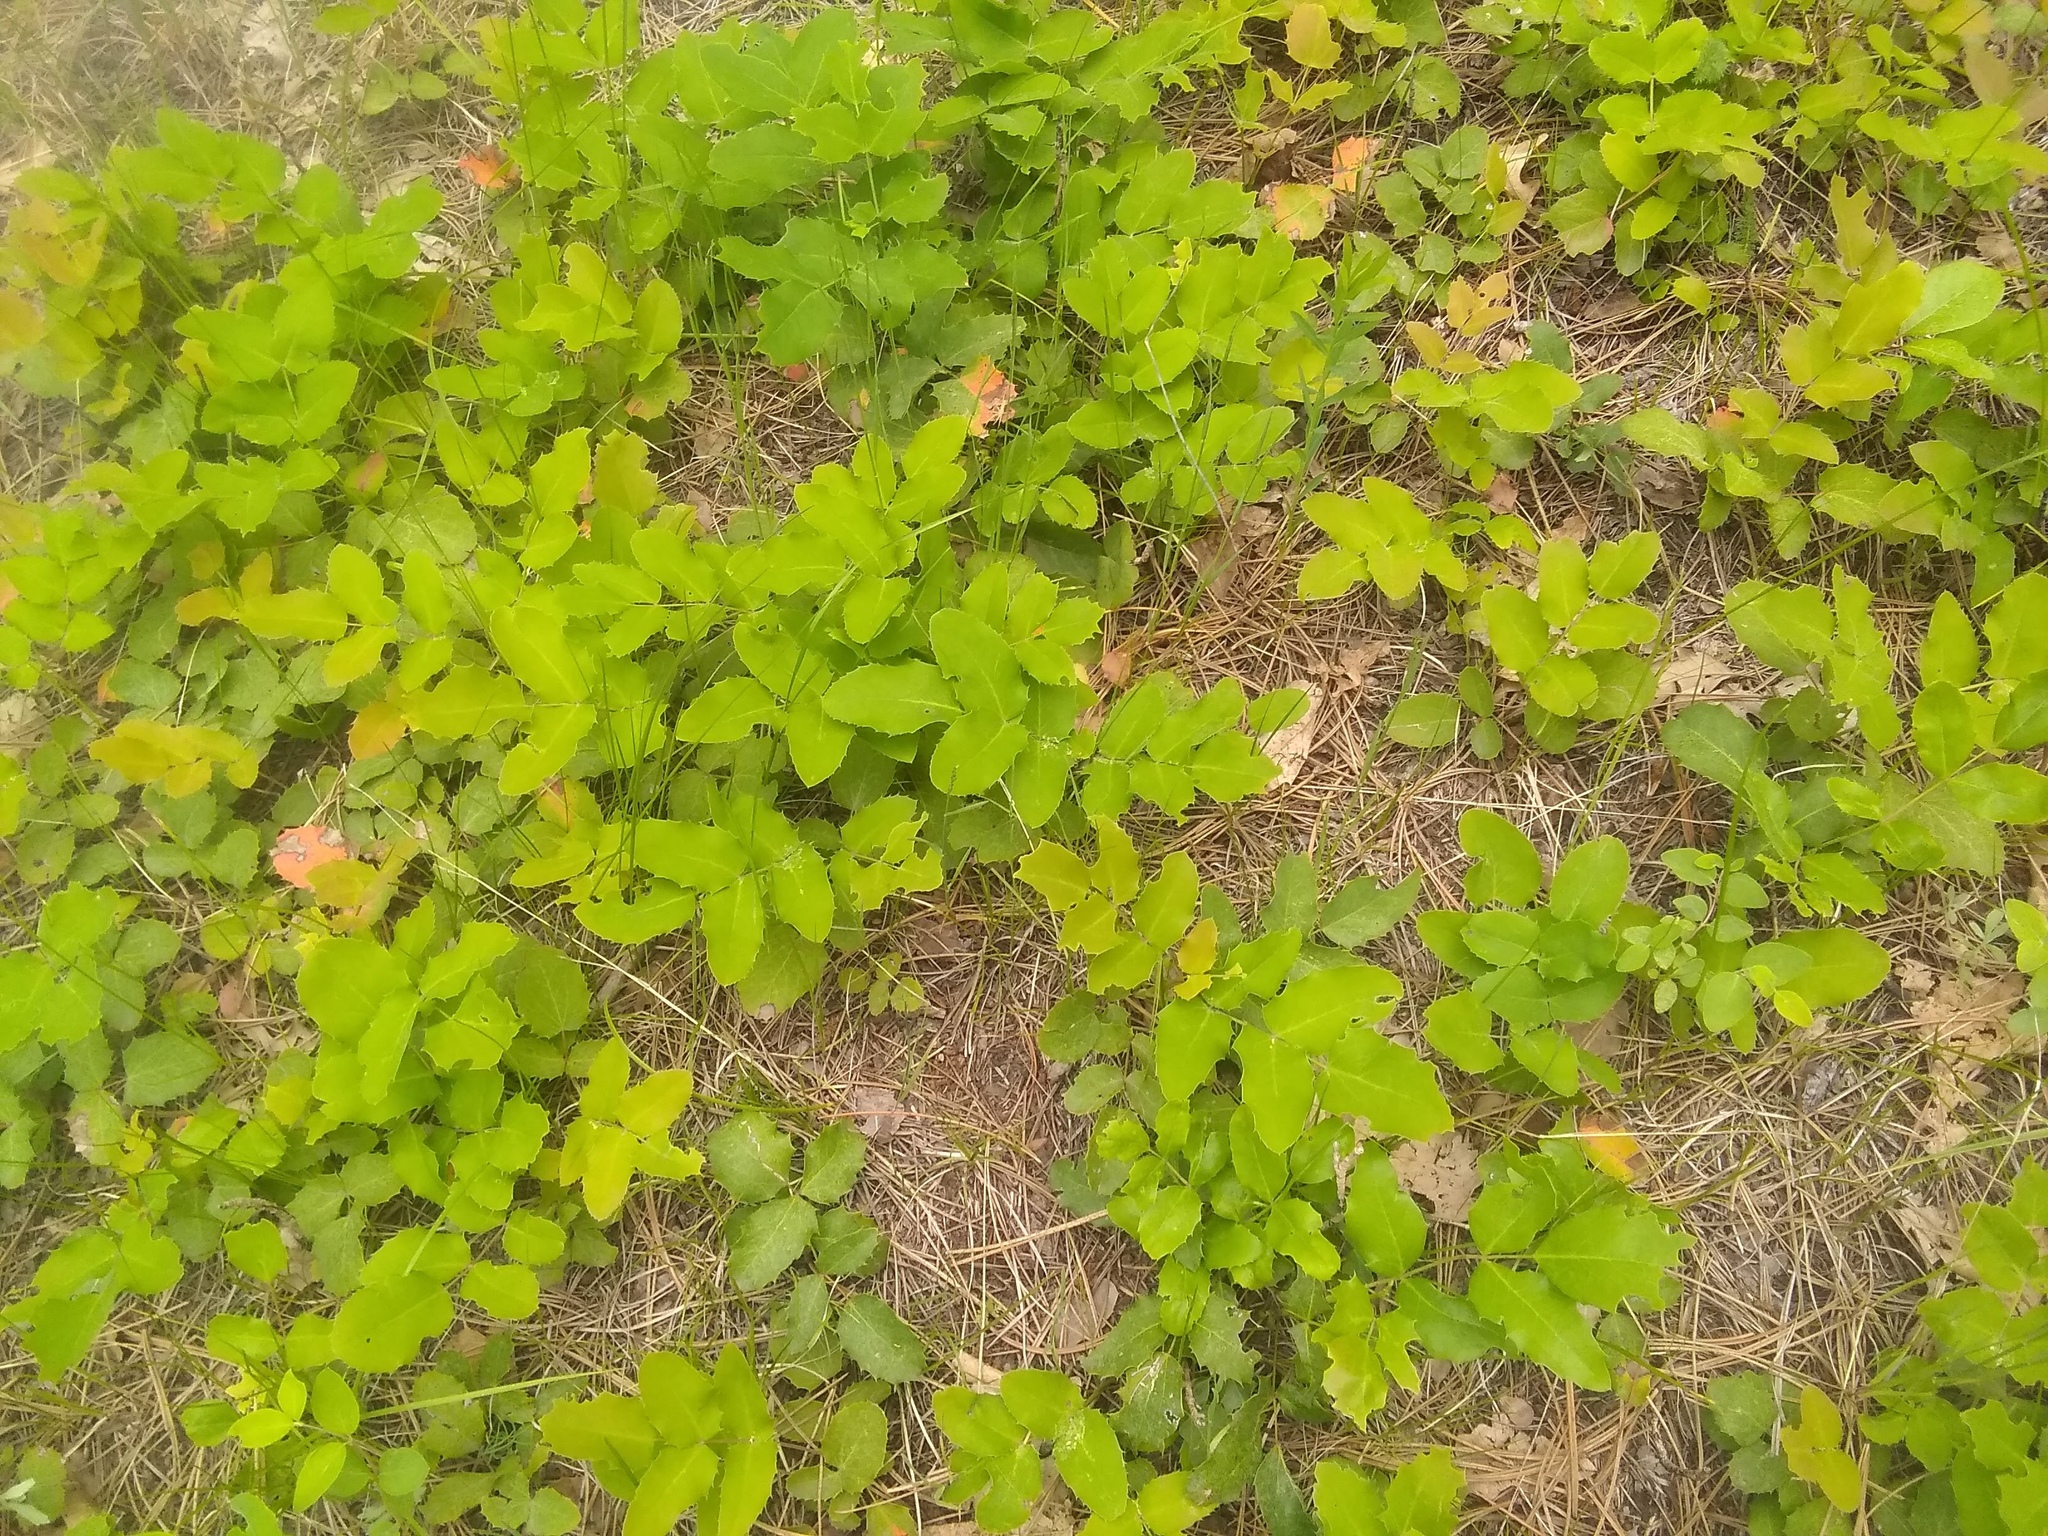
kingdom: Plantae
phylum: Tracheophyta
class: Magnoliopsida
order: Ranunculales
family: Berberidaceae
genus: Mahonia
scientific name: Mahonia repens
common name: Creeping oregon-grape
